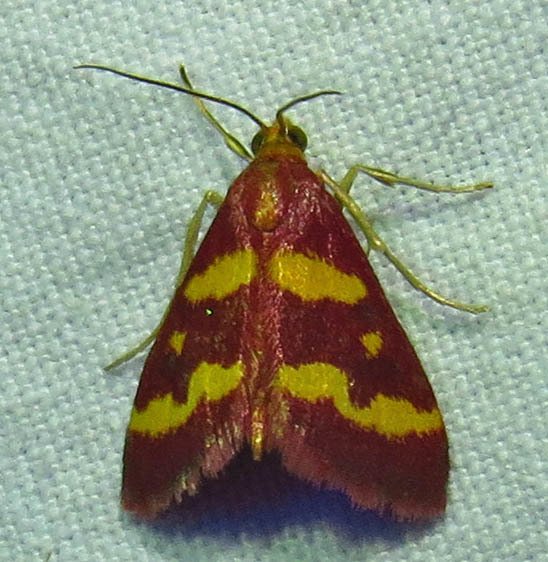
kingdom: Animalia
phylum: Arthropoda
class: Insecta
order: Lepidoptera
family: Crambidae
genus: Pyrausta
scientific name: Pyrausta tyralis
